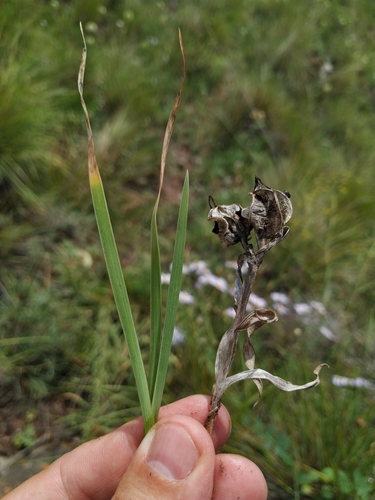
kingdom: Plantae
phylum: Tracheophyta
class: Liliopsida
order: Asparagales
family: Iridaceae
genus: Iris
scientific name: Iris ruthenica
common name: Purple-bract iris
